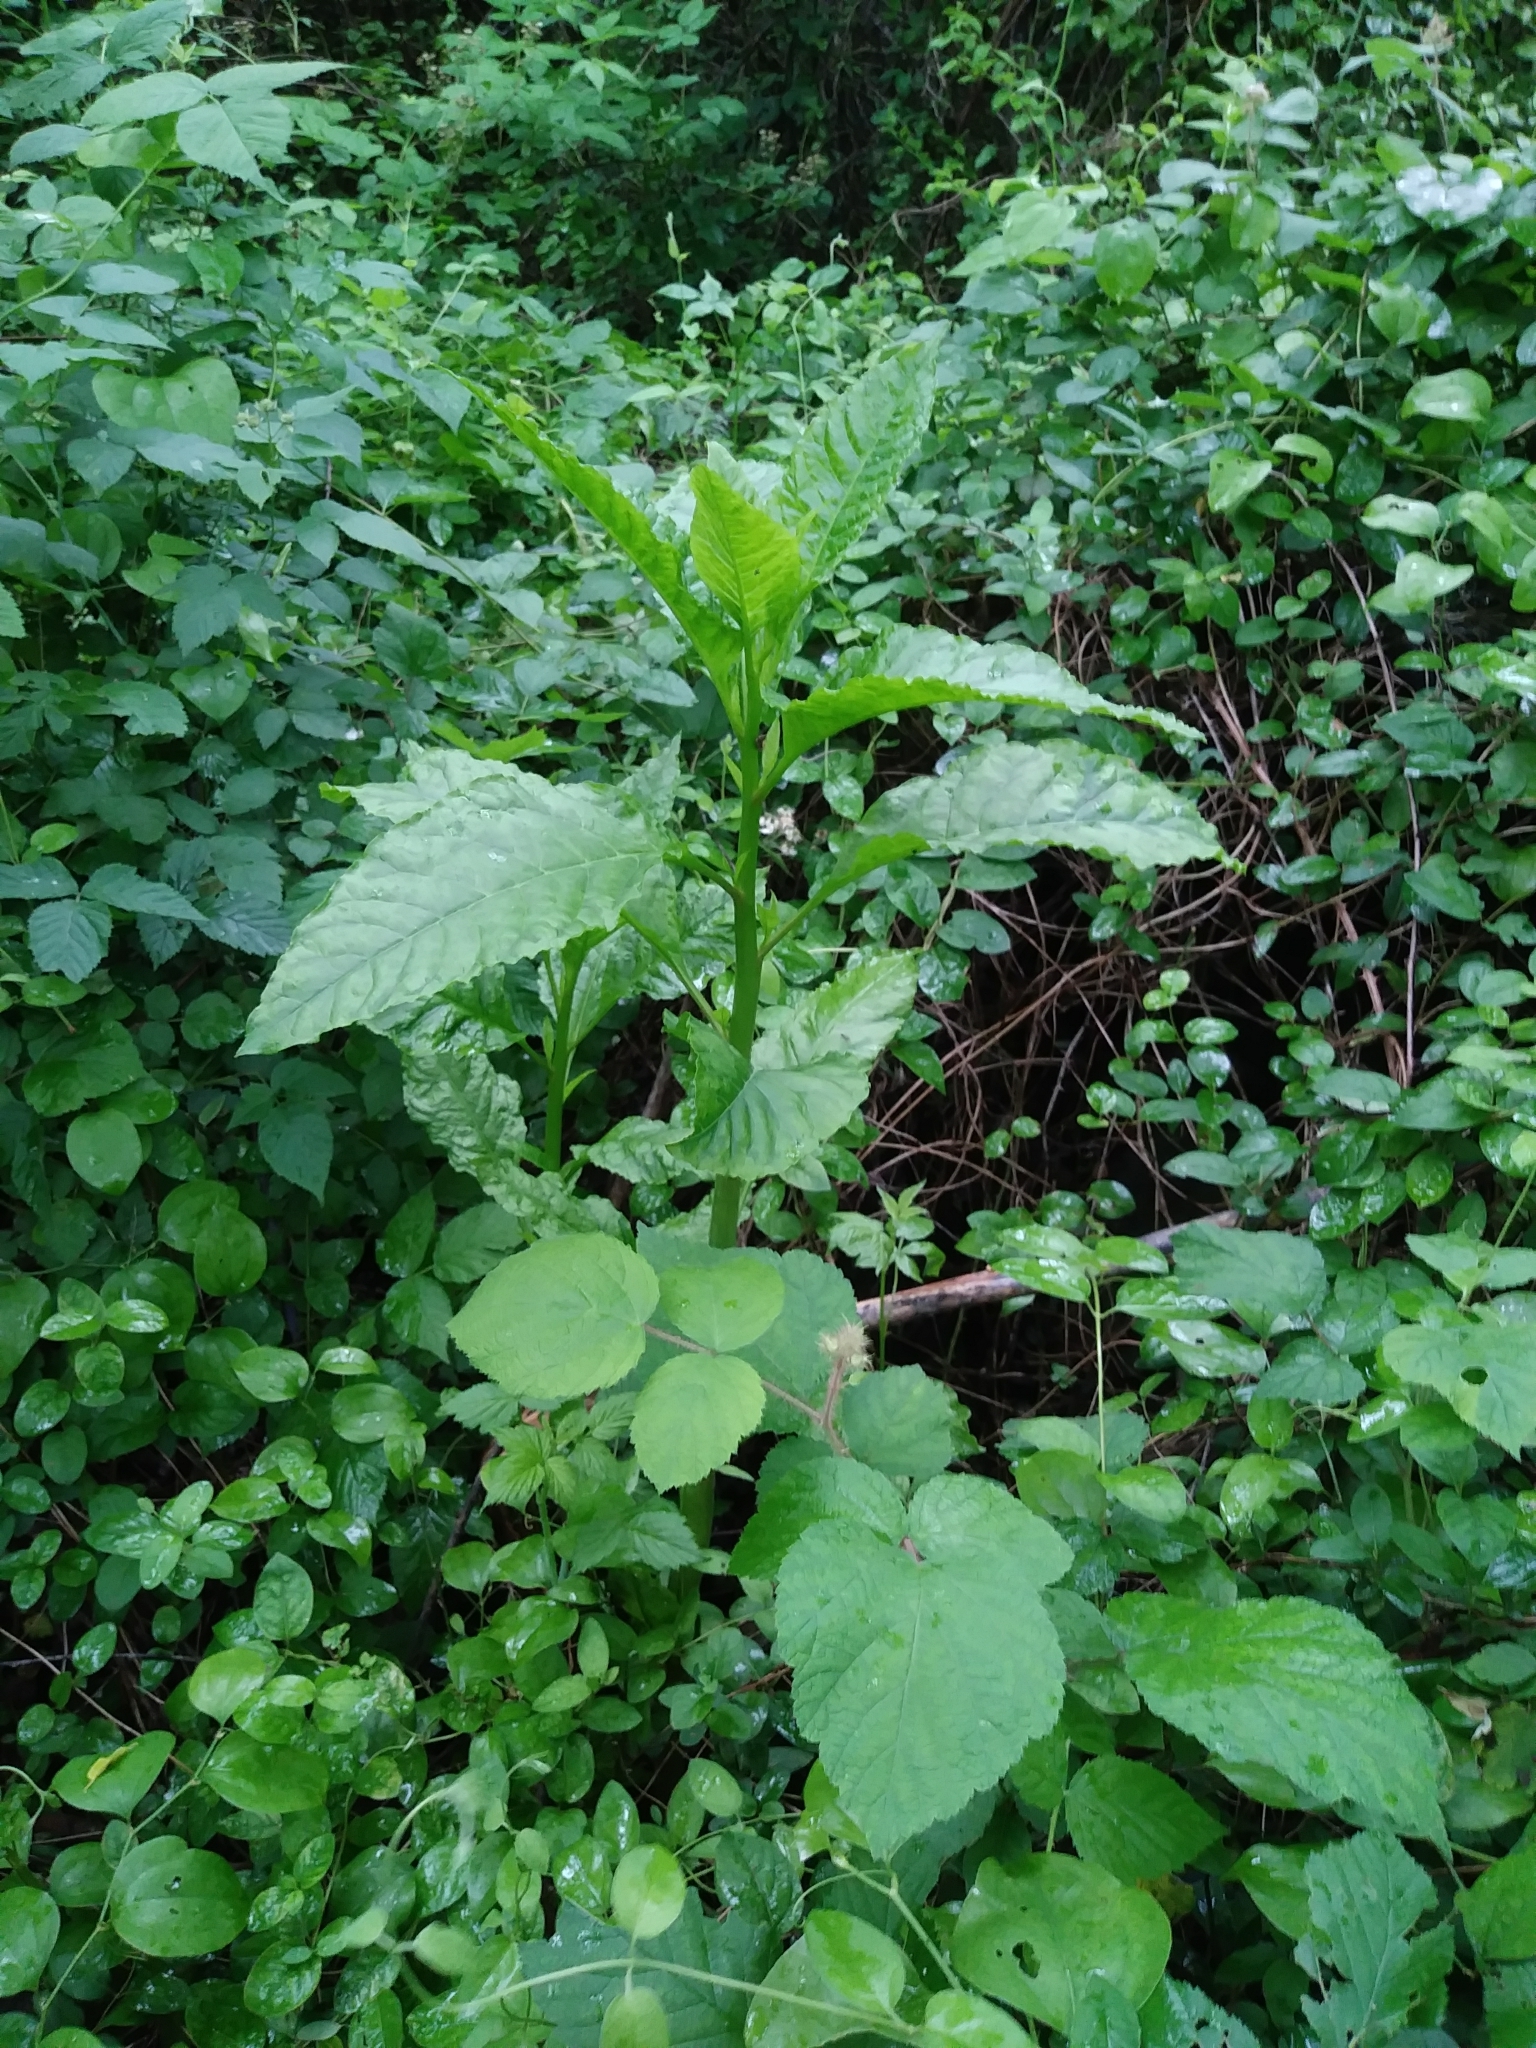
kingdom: Plantae
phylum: Tracheophyta
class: Magnoliopsida
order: Caryophyllales
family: Phytolaccaceae
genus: Phytolacca
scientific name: Phytolacca americana
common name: American pokeweed
